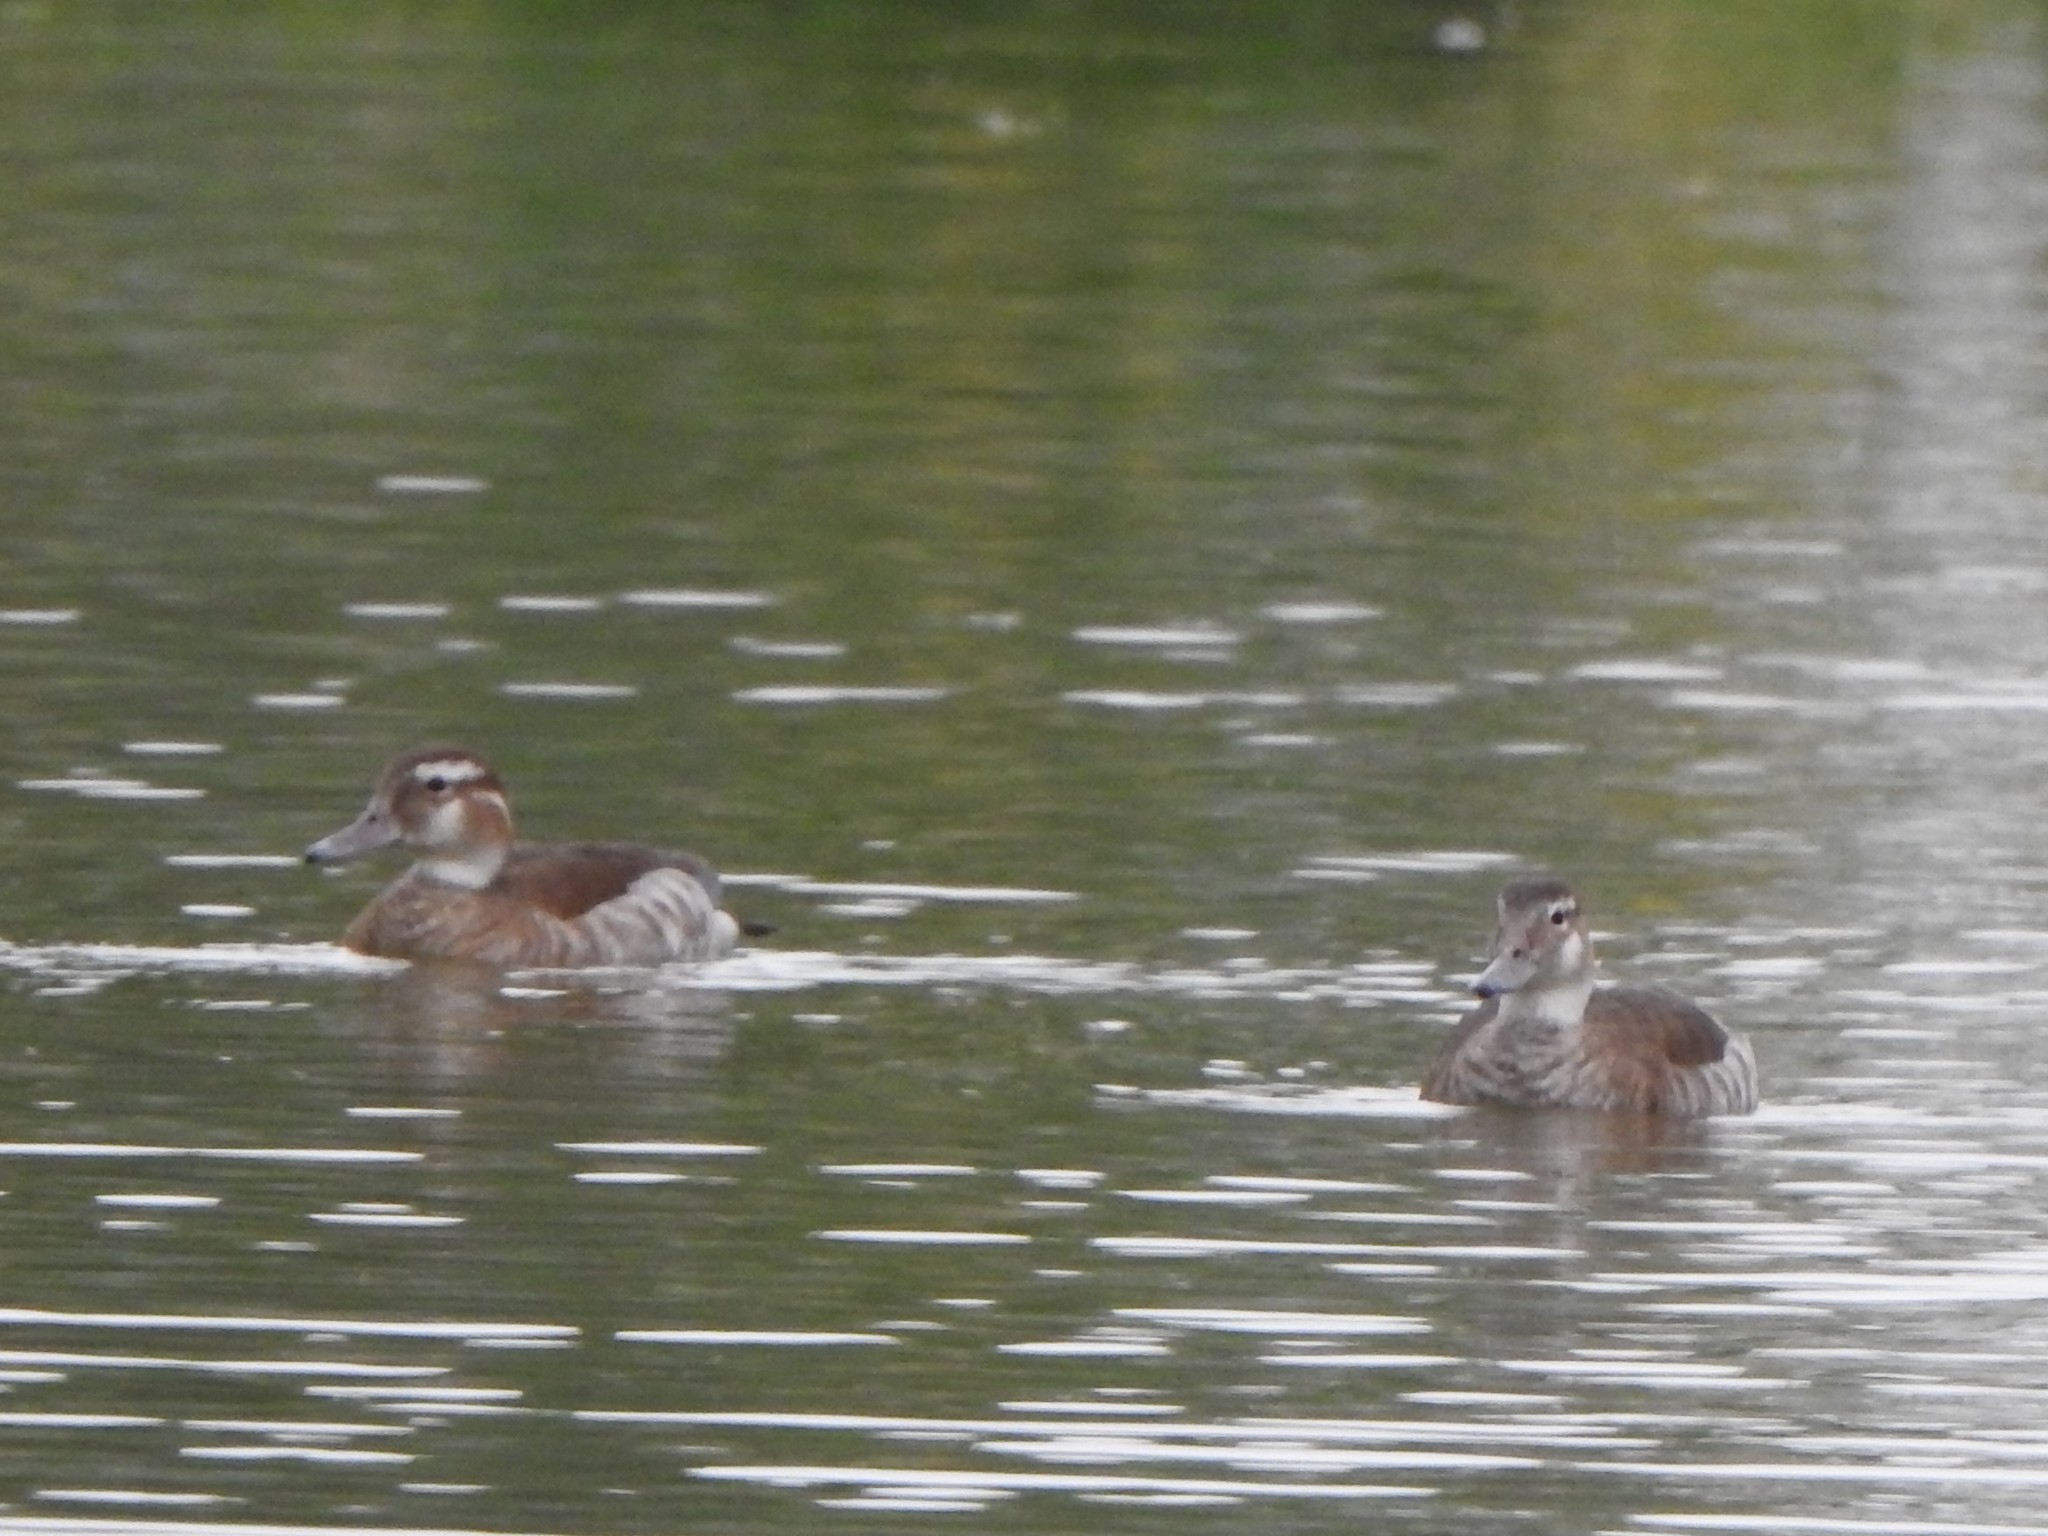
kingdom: Animalia
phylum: Chordata
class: Aves
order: Anseriformes
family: Anatidae
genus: Callonetta
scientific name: Callonetta leucophrys
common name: Ringed teal
